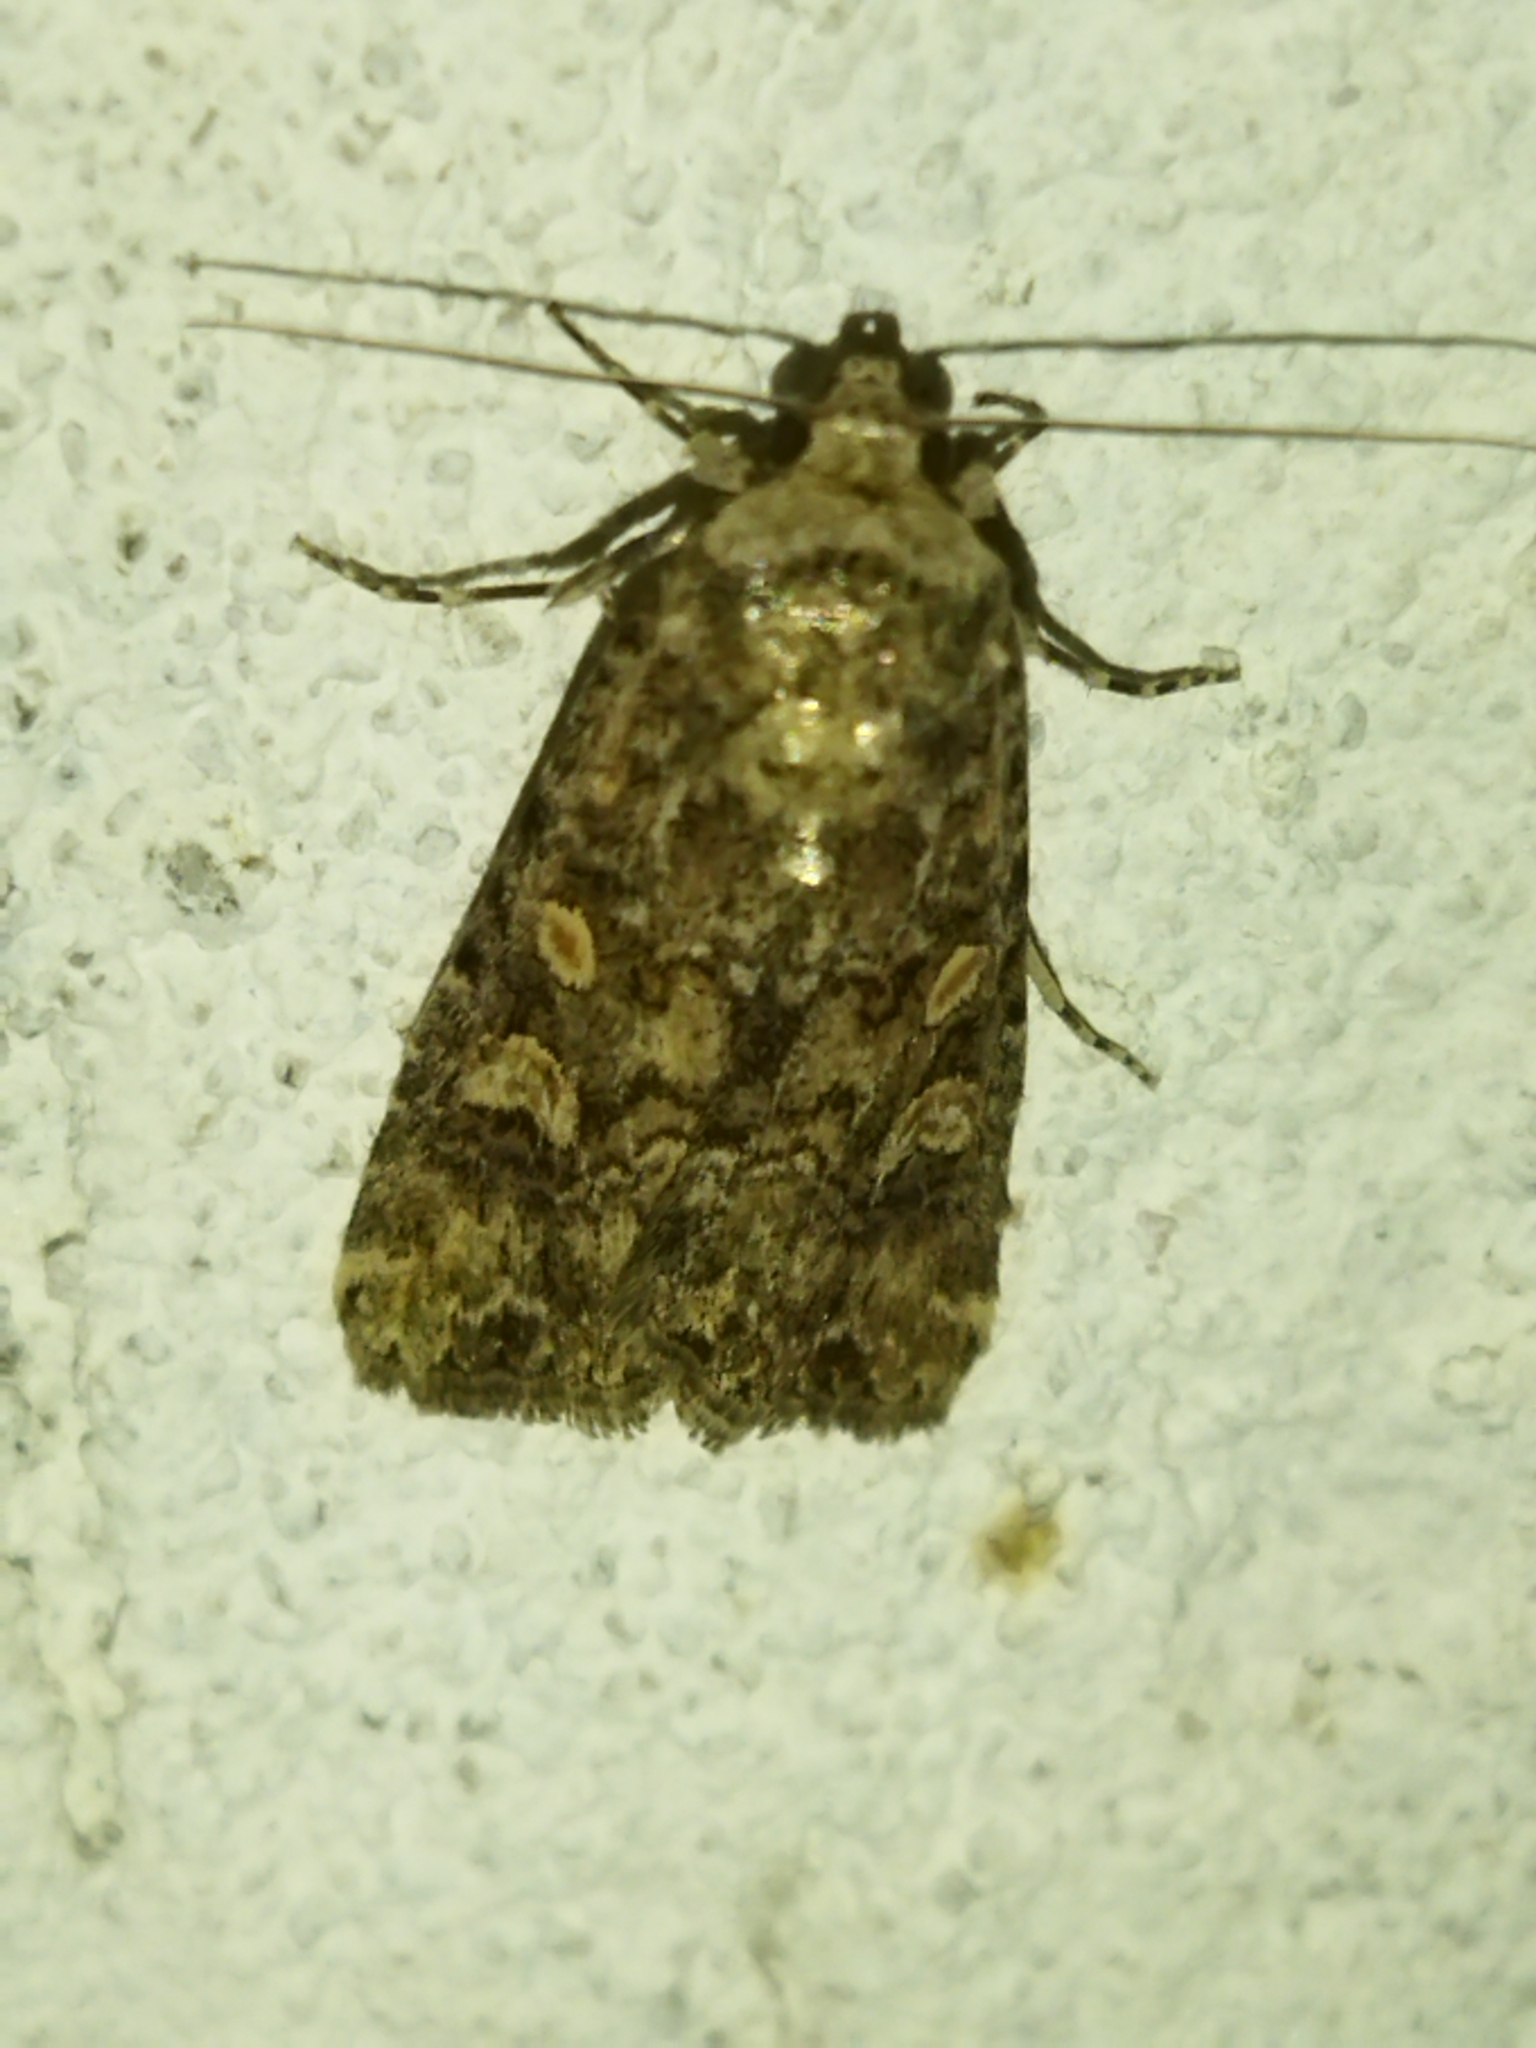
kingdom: Animalia
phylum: Arthropoda
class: Insecta
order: Lepidoptera
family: Noctuidae
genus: Spodoptera
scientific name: Spodoptera exigua
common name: Beet armyworm
